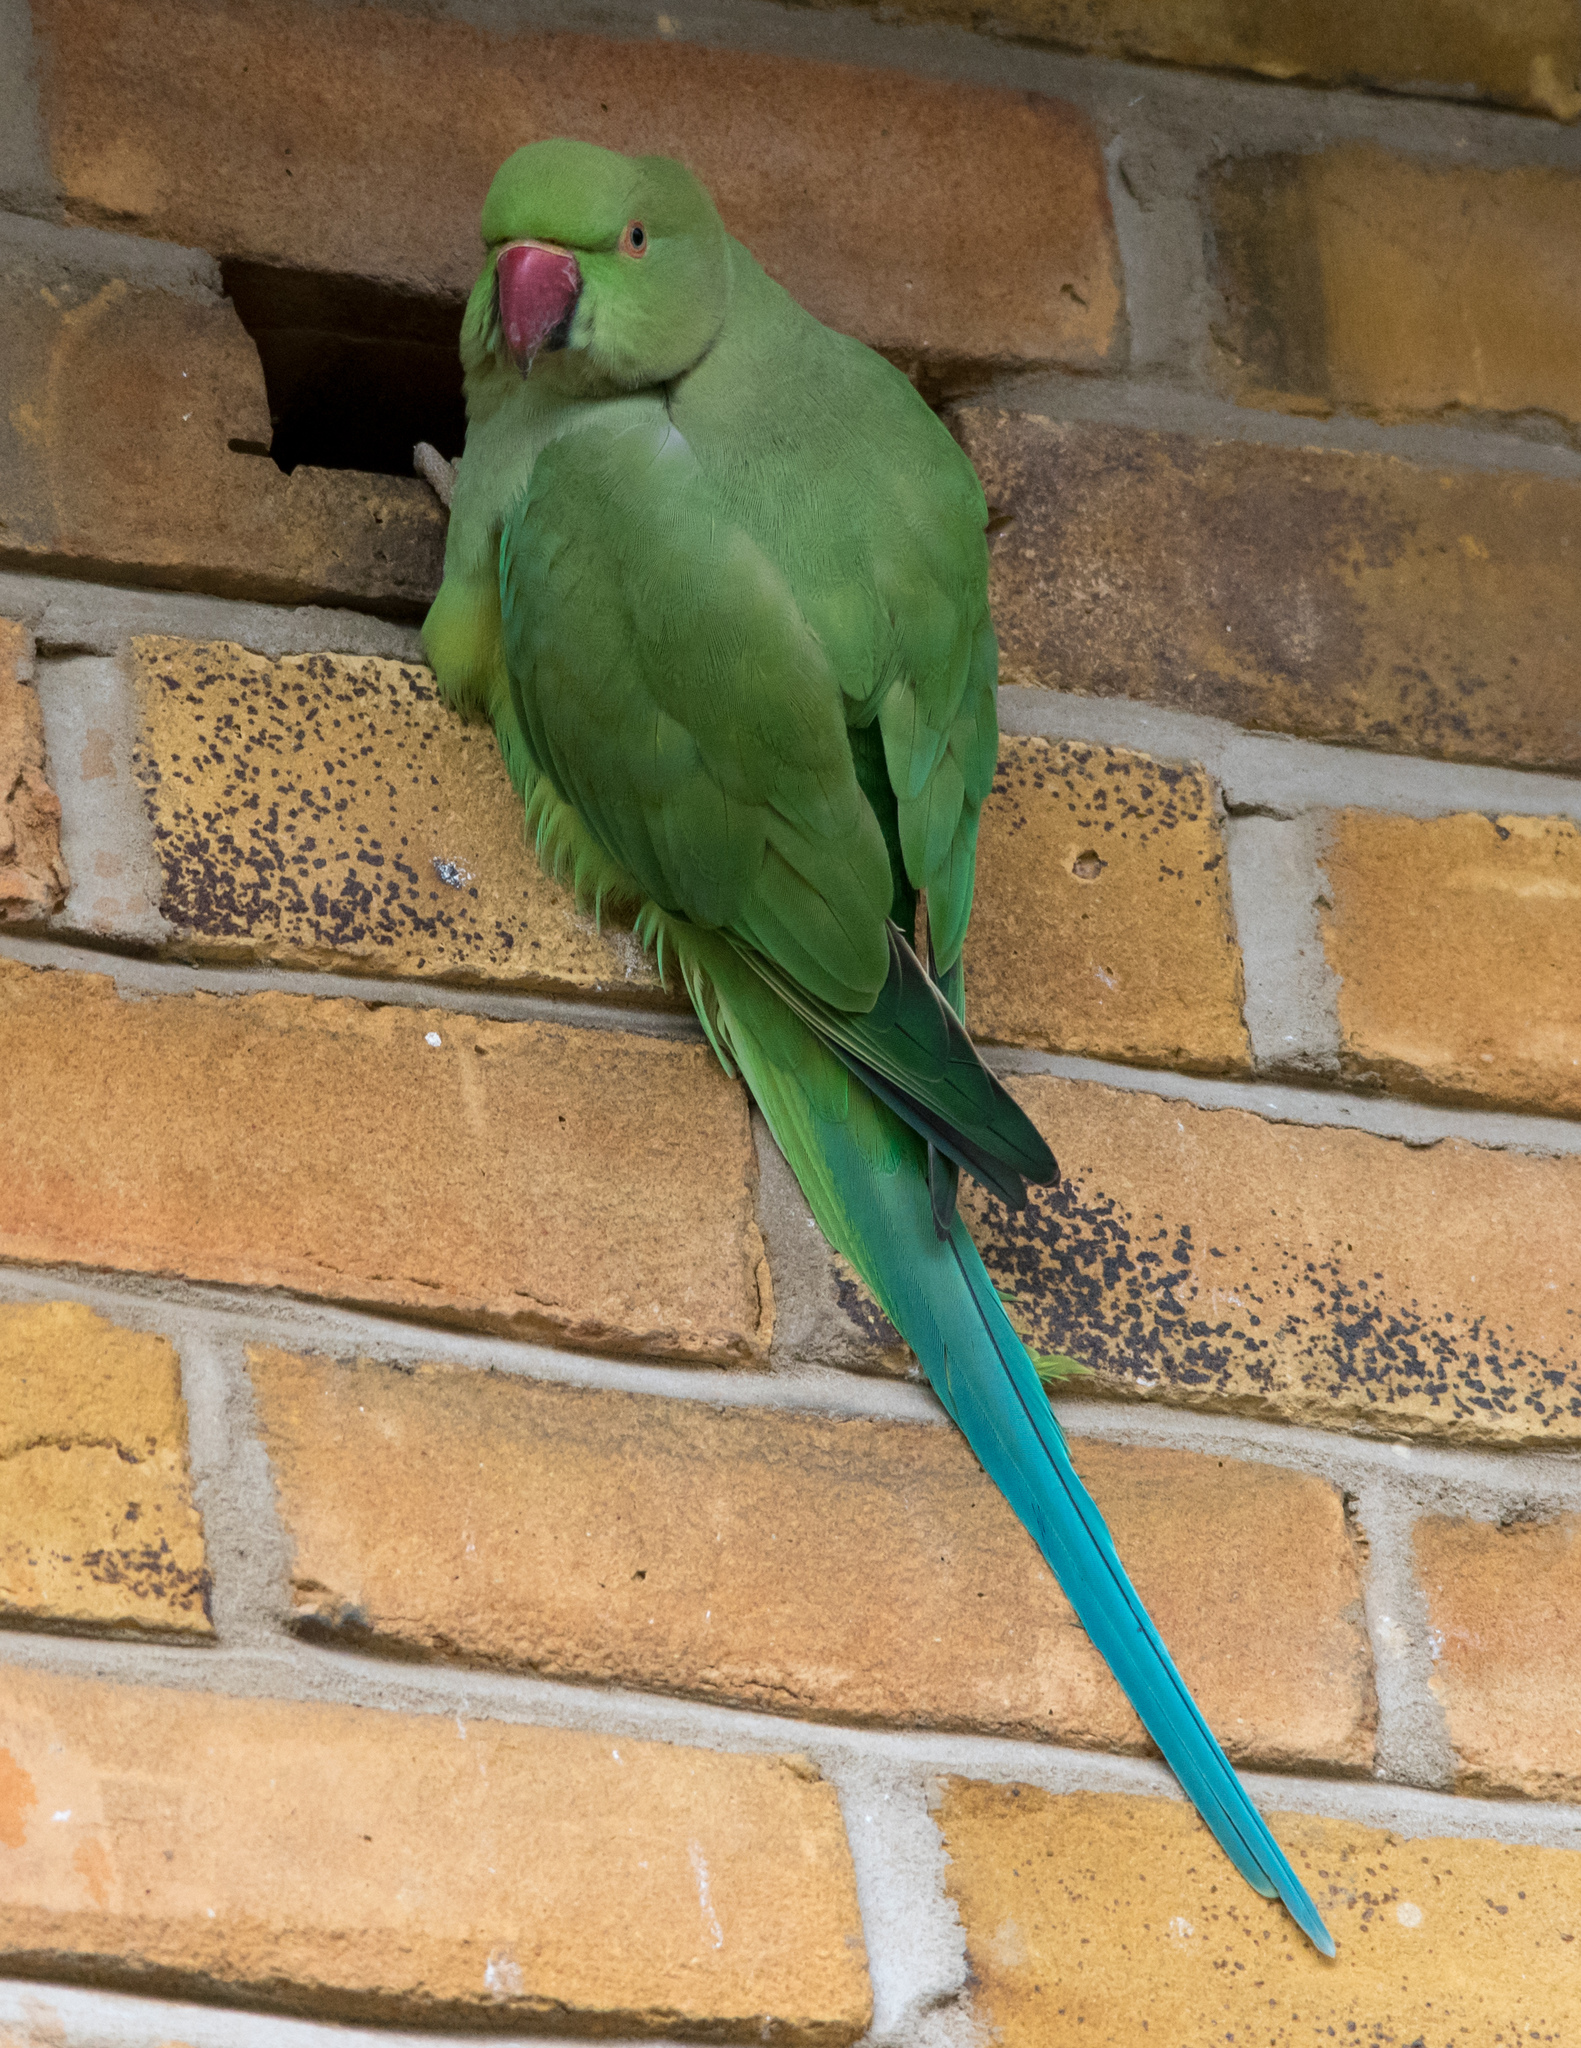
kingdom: Animalia
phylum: Chordata
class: Aves
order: Psittaciformes
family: Psittacidae
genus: Psittacula
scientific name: Psittacula krameri
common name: Rose-ringed parakeet
